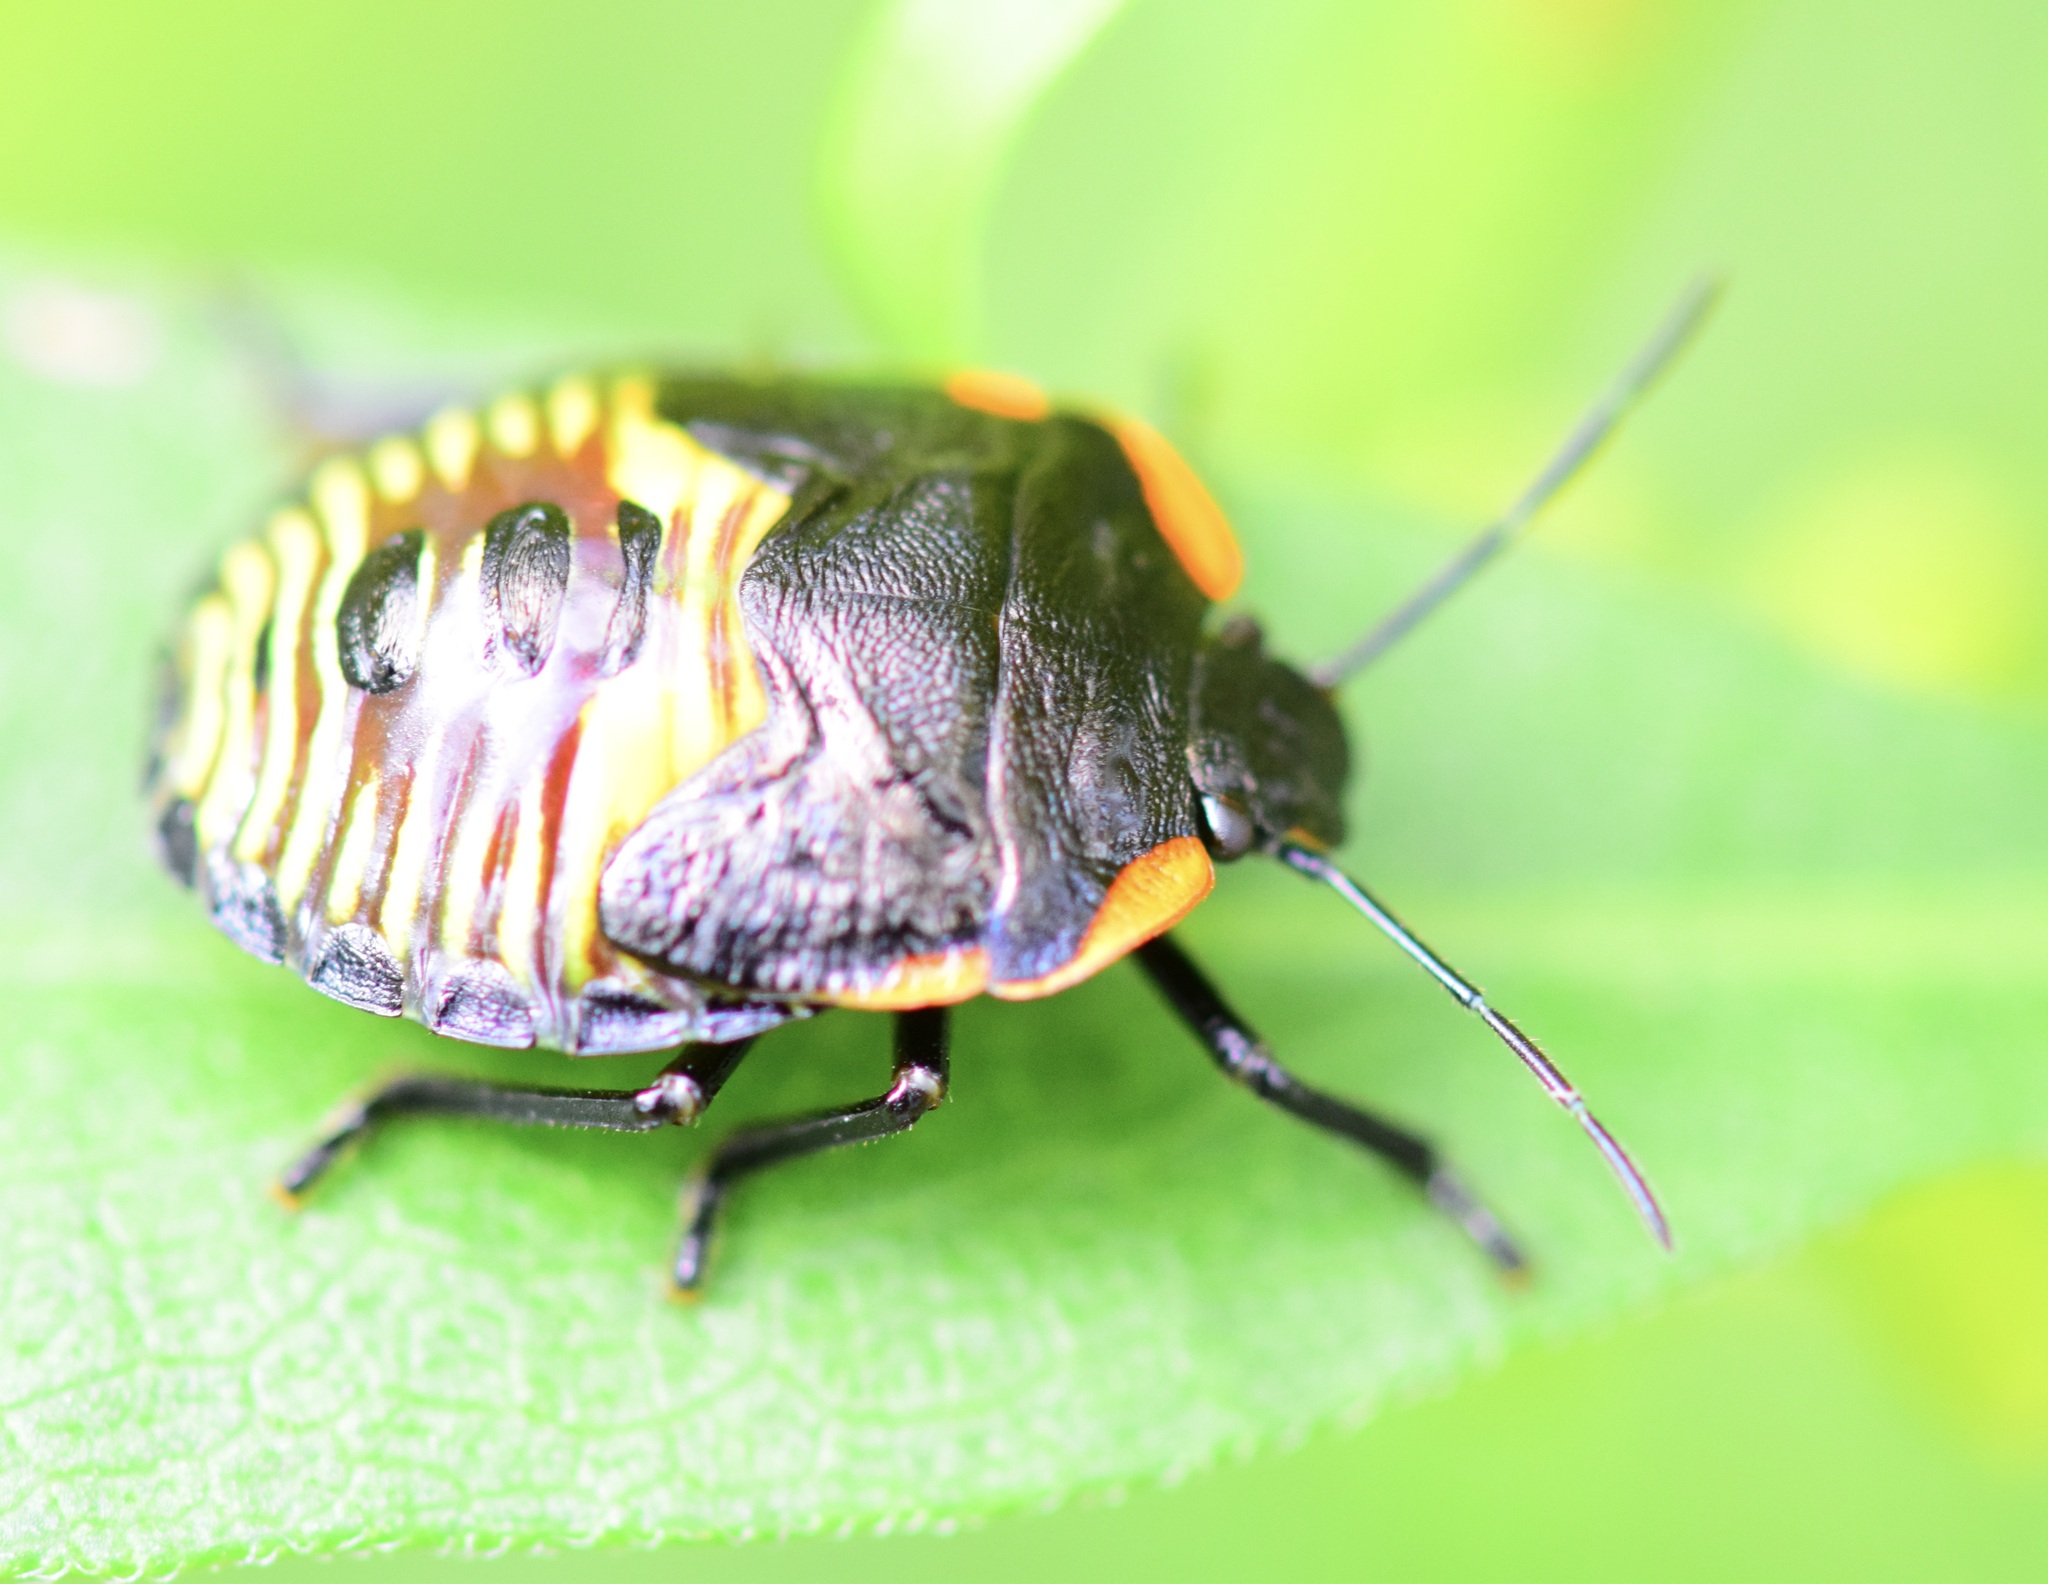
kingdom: Animalia
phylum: Arthropoda
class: Insecta
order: Hemiptera
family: Pentatomidae
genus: Chinavia
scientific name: Chinavia hilaris
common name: Green stink bug
